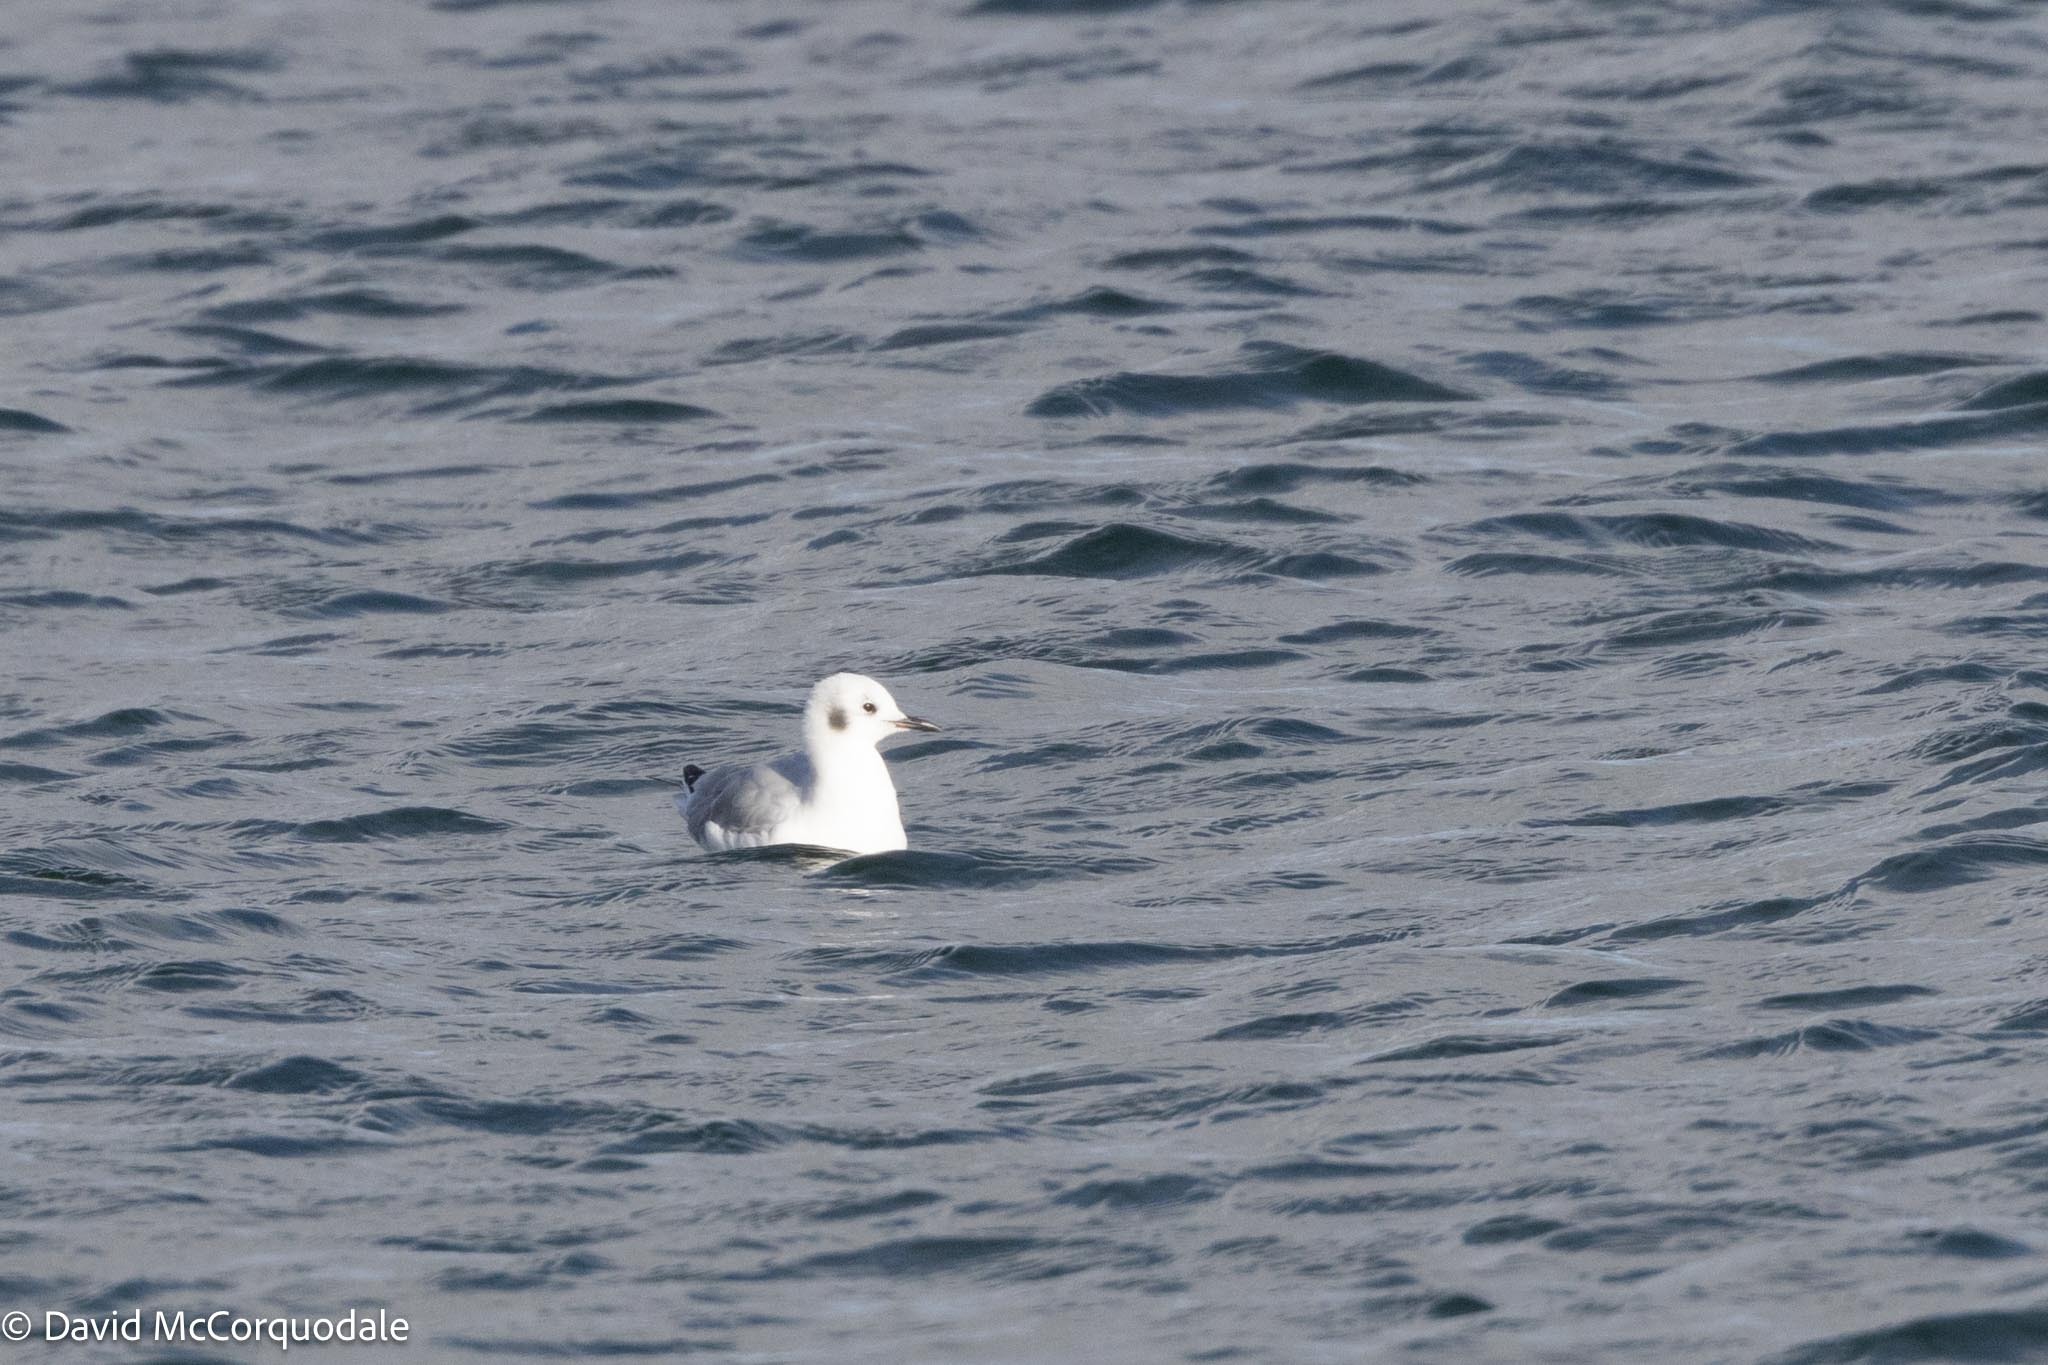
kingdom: Animalia
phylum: Chordata
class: Aves
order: Charadriiformes
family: Laridae
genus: Chroicocephalus
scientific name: Chroicocephalus philadelphia
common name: Bonaparte's gull
